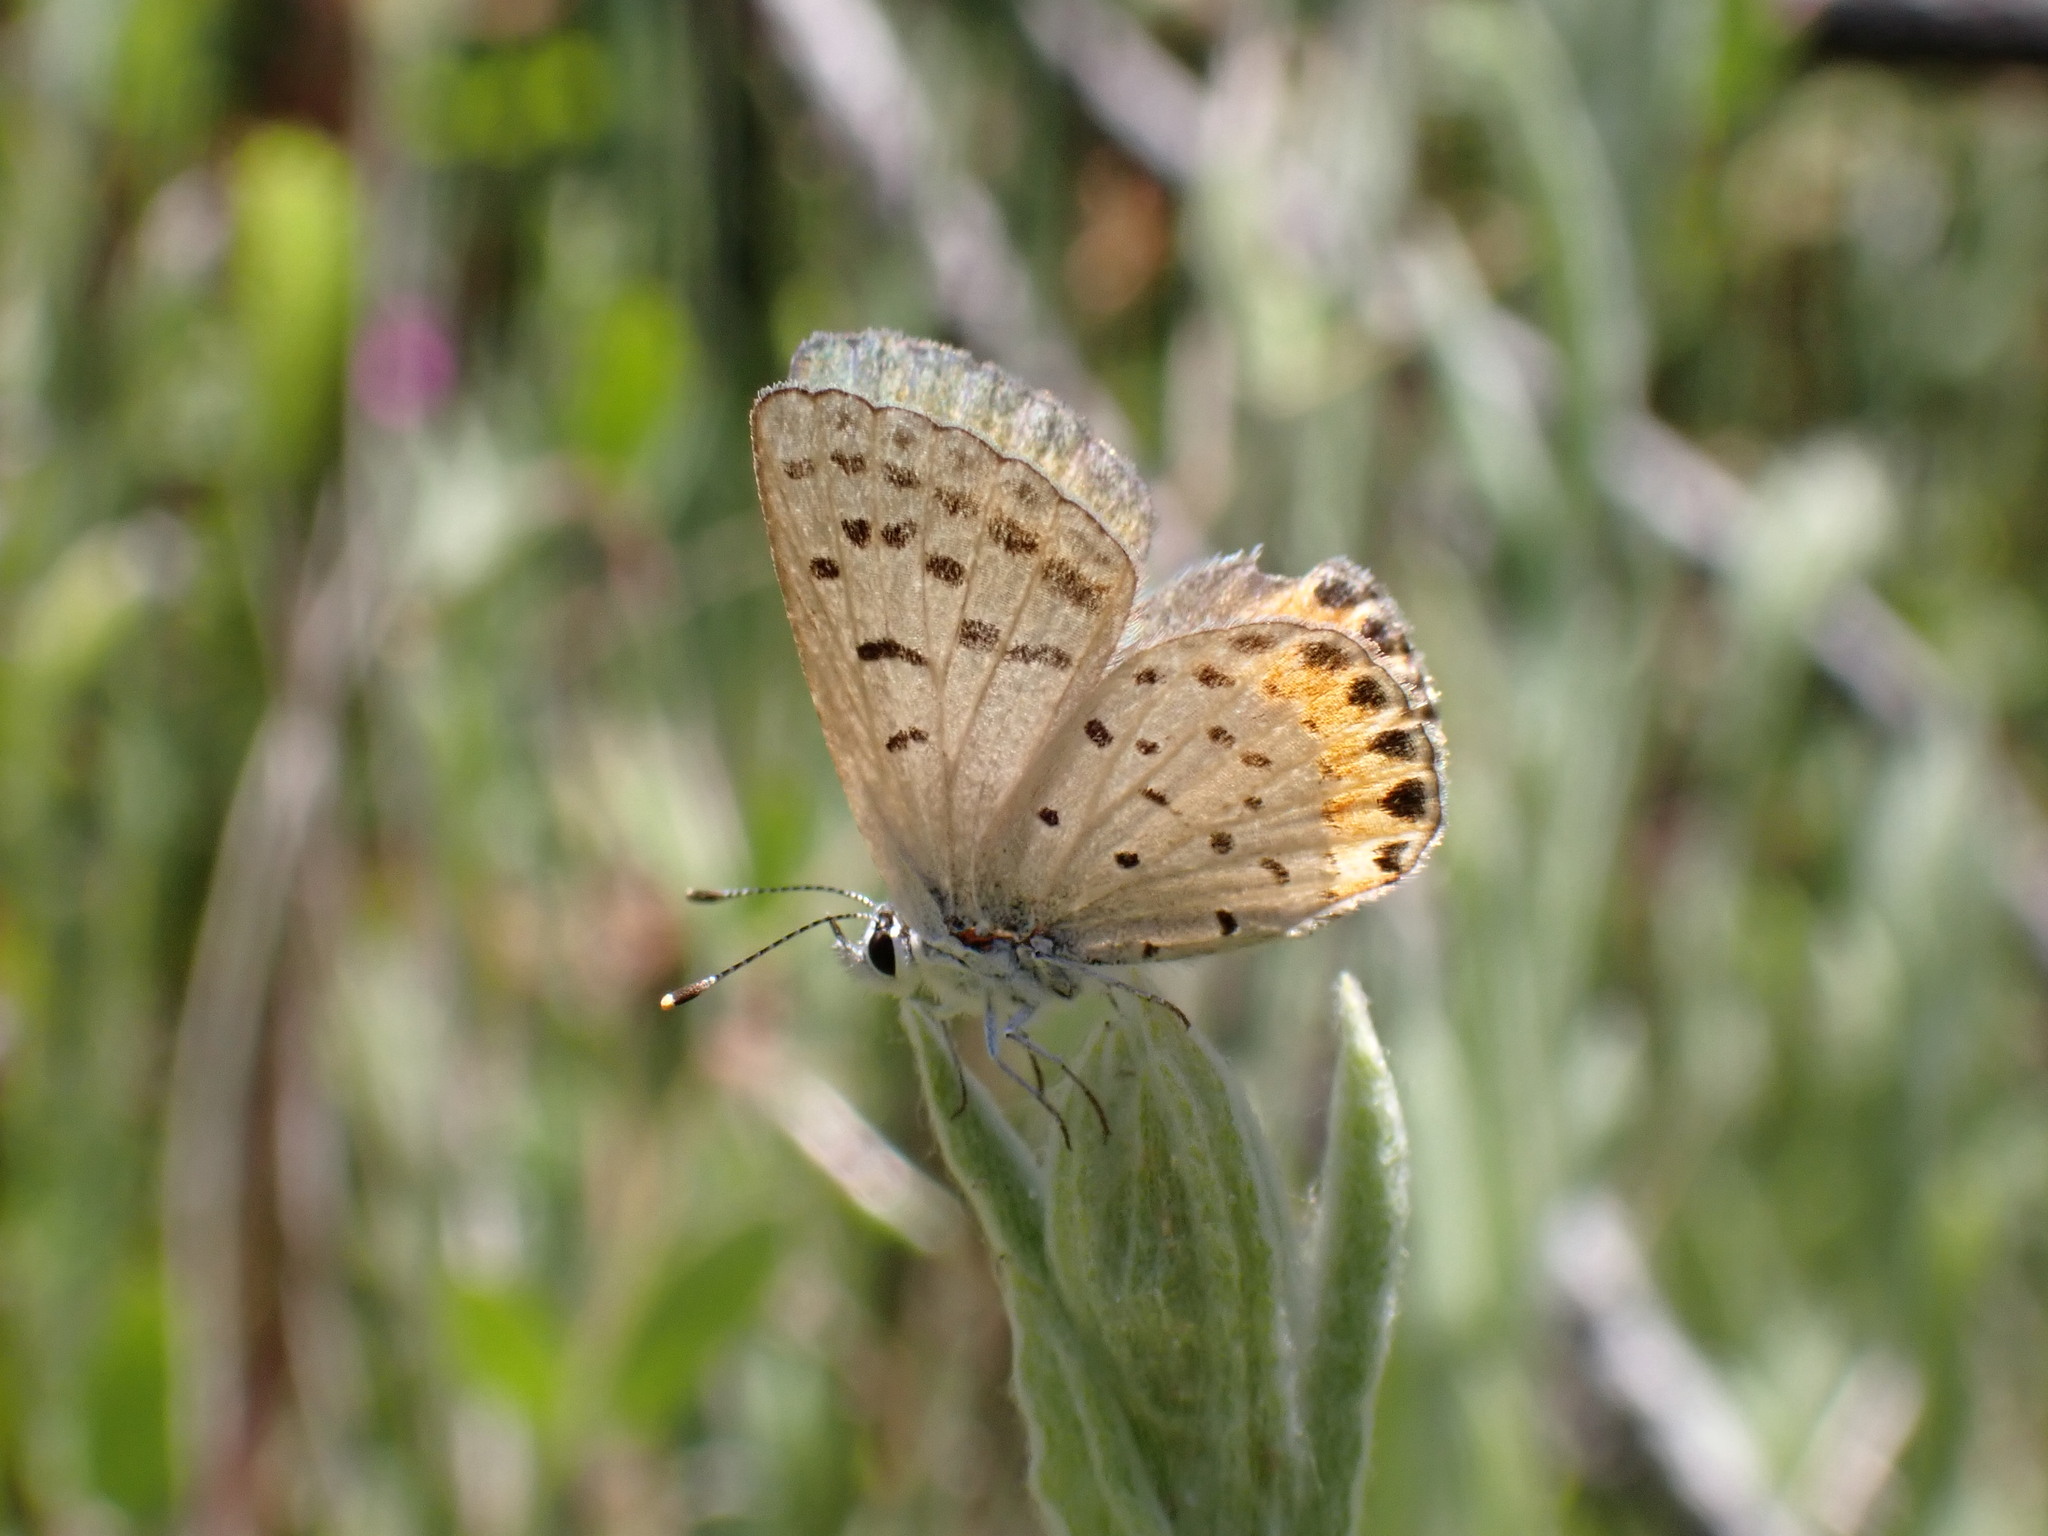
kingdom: Animalia
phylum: Arthropoda
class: Insecta
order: Lepidoptera
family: Lycaenidae
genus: Icaricia
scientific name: Icaricia acmon
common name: Acmon blue
